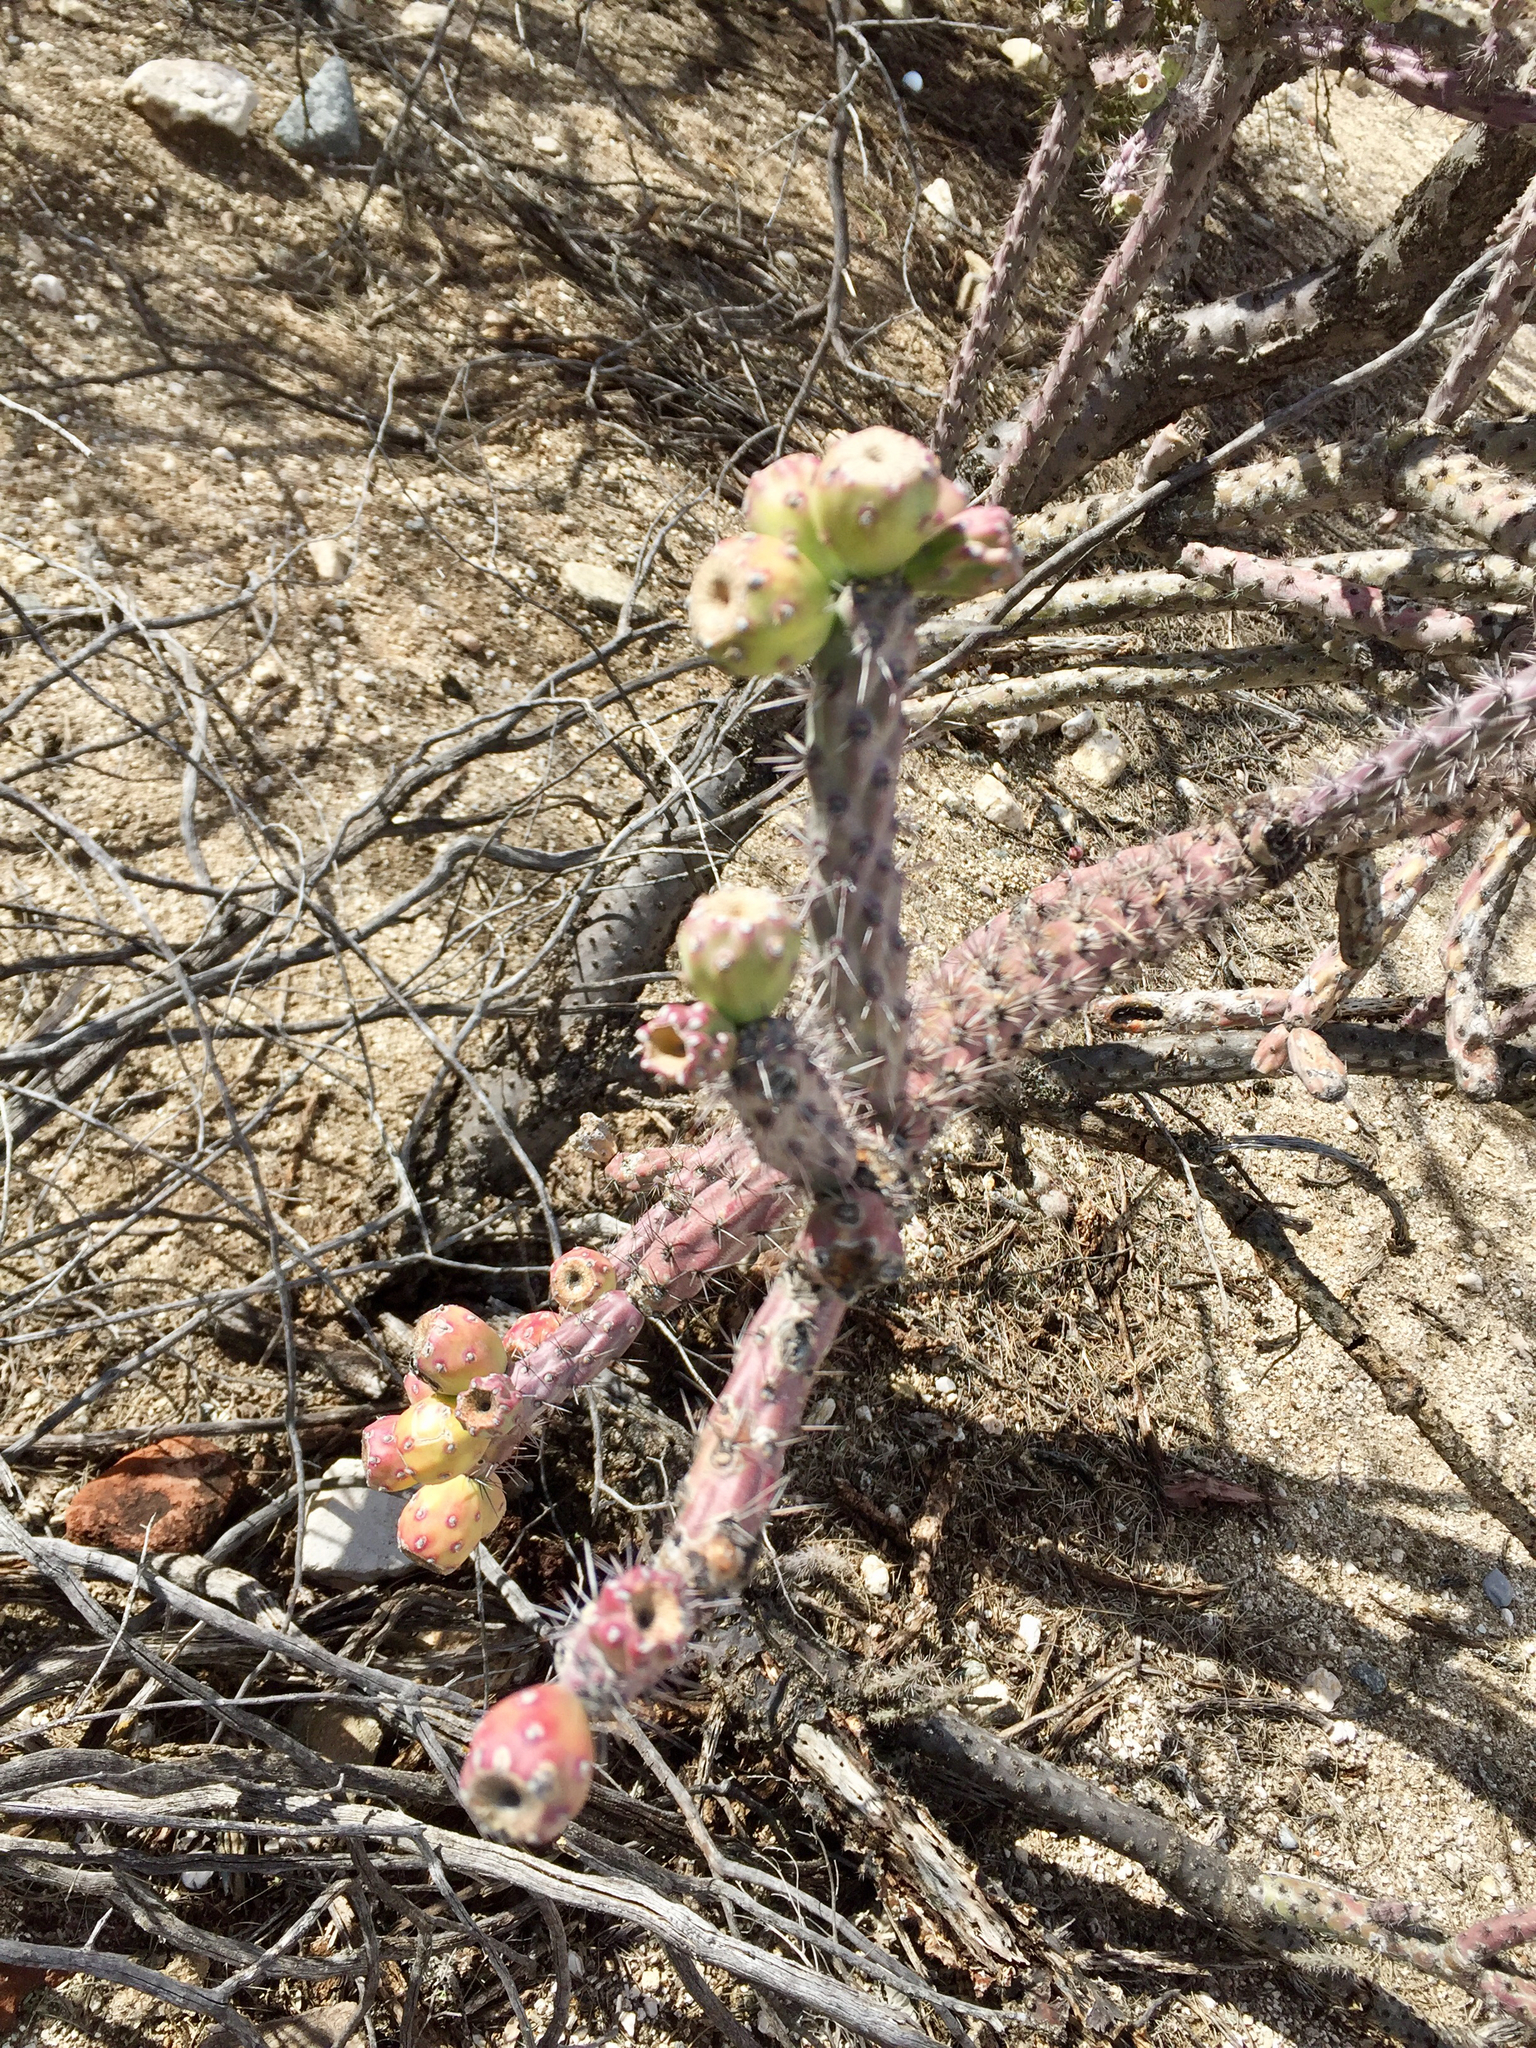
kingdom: Plantae
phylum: Tracheophyta
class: Magnoliopsida
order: Caryophyllales
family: Cactaceae
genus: Cylindropuntia
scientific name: Cylindropuntia thurberi
